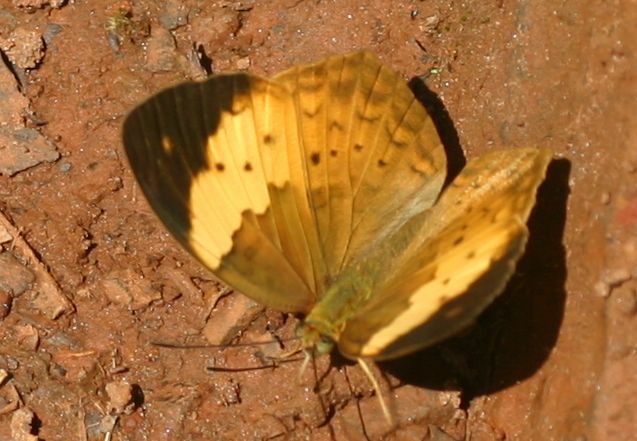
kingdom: Animalia
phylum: Arthropoda
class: Insecta
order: Lepidoptera
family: Nymphalidae
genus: Cupha
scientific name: Cupha erymanthis
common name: Rustic
